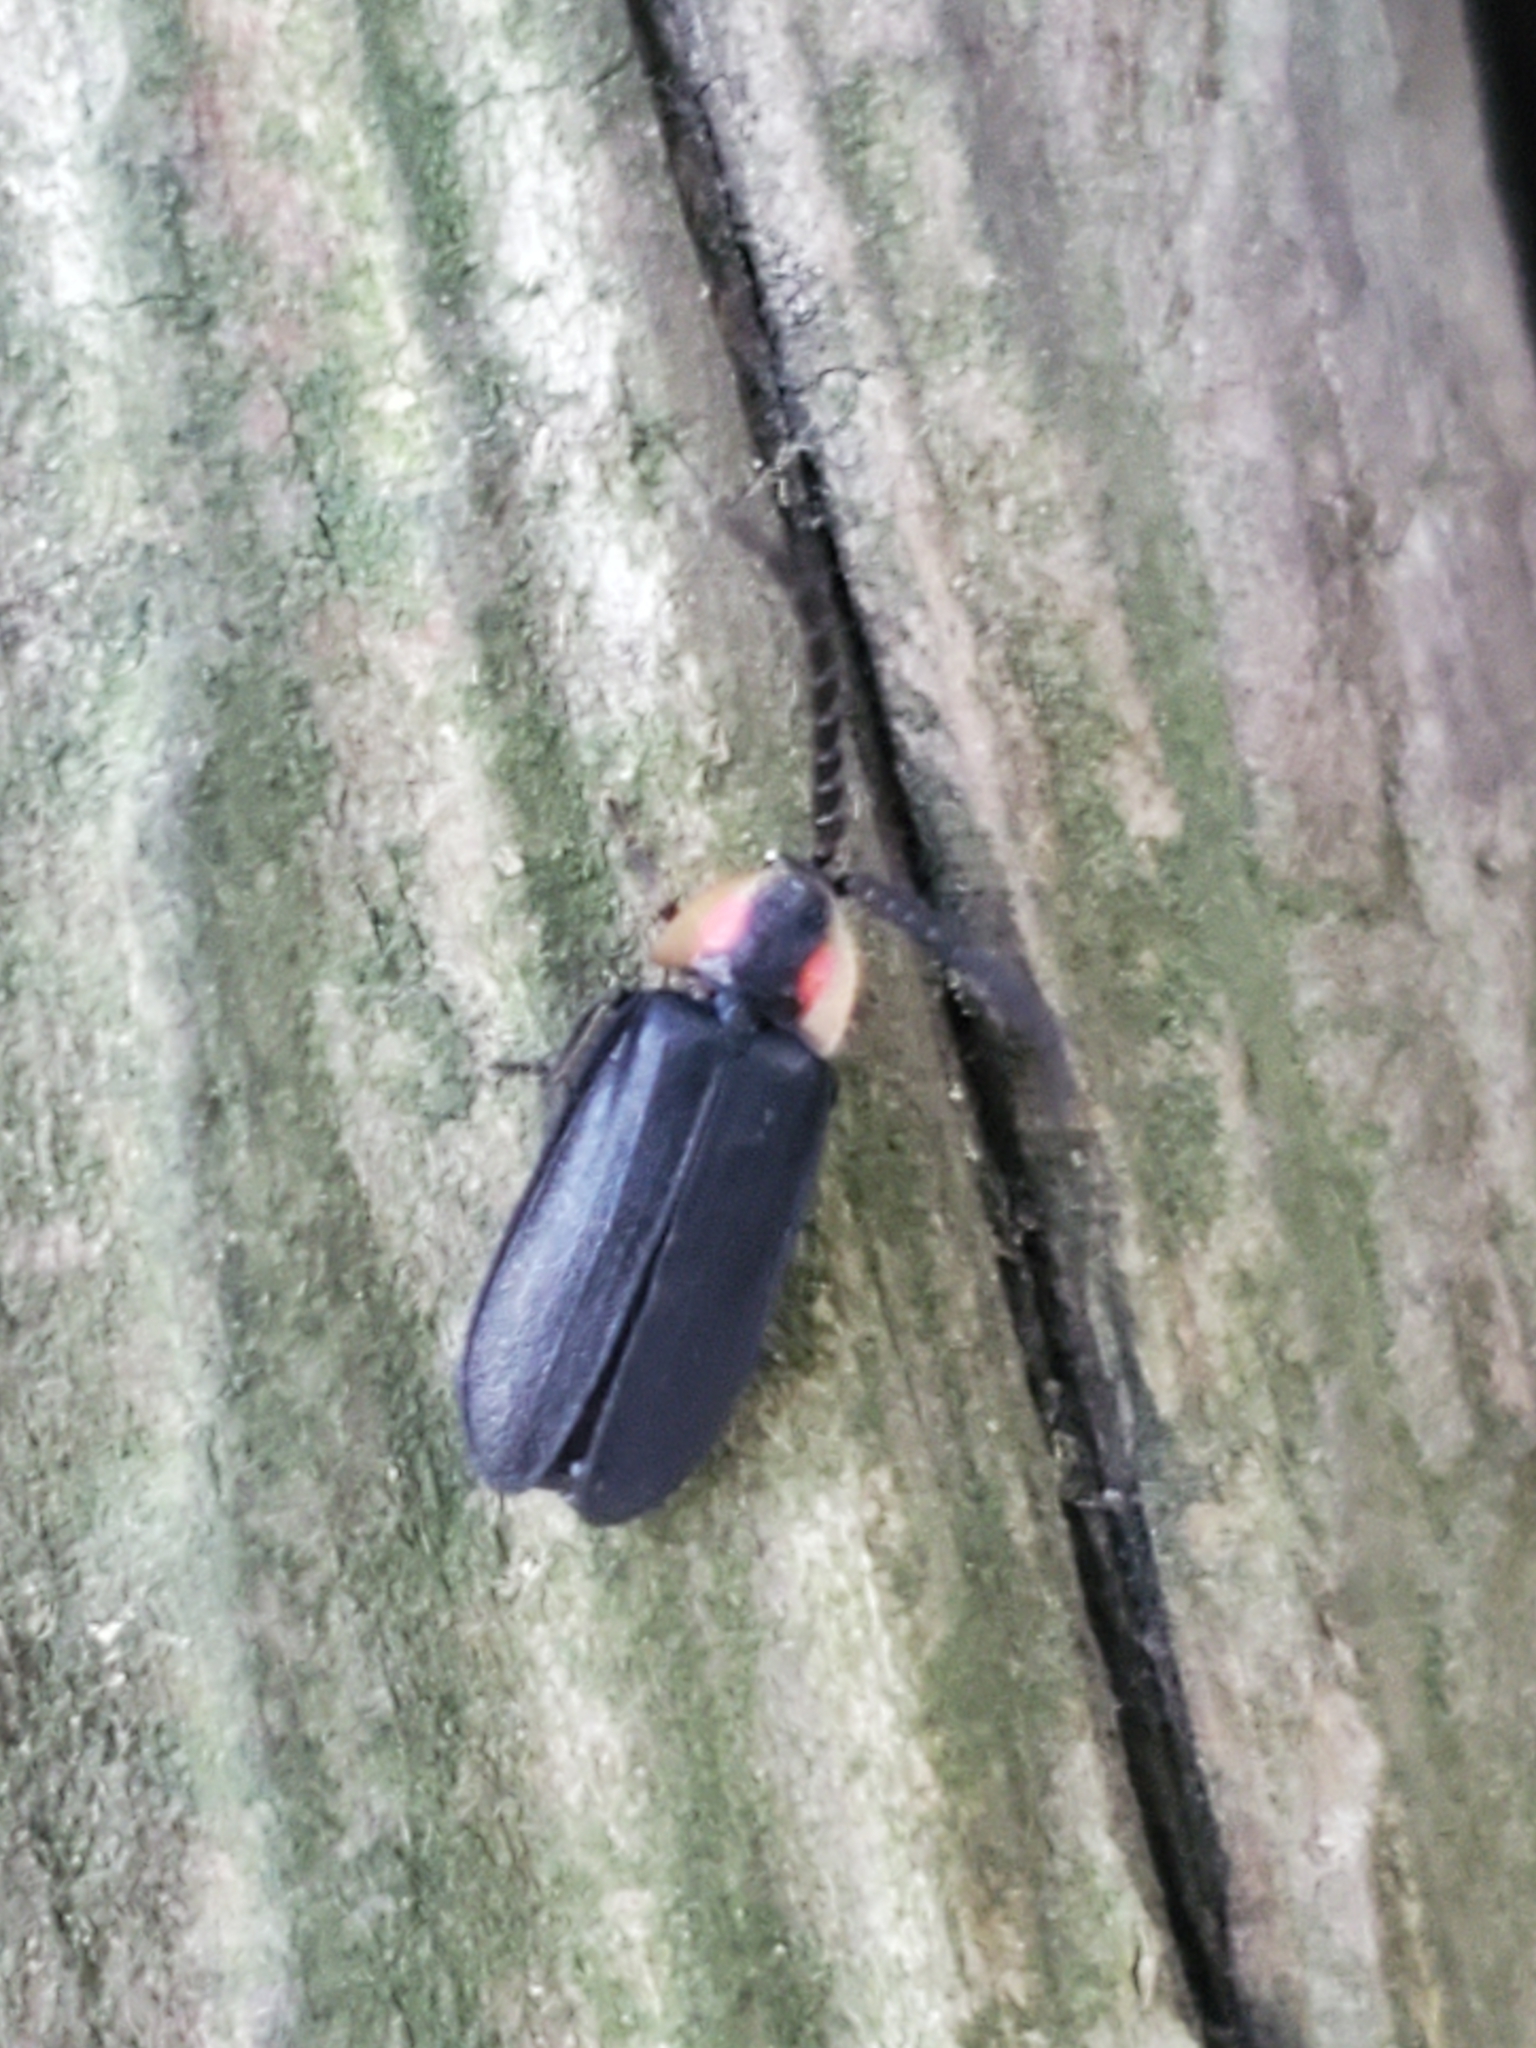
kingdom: Animalia
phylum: Arthropoda
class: Insecta
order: Coleoptera
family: Lampyridae
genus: Lucidota
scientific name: Lucidota atra
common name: Black firefly
